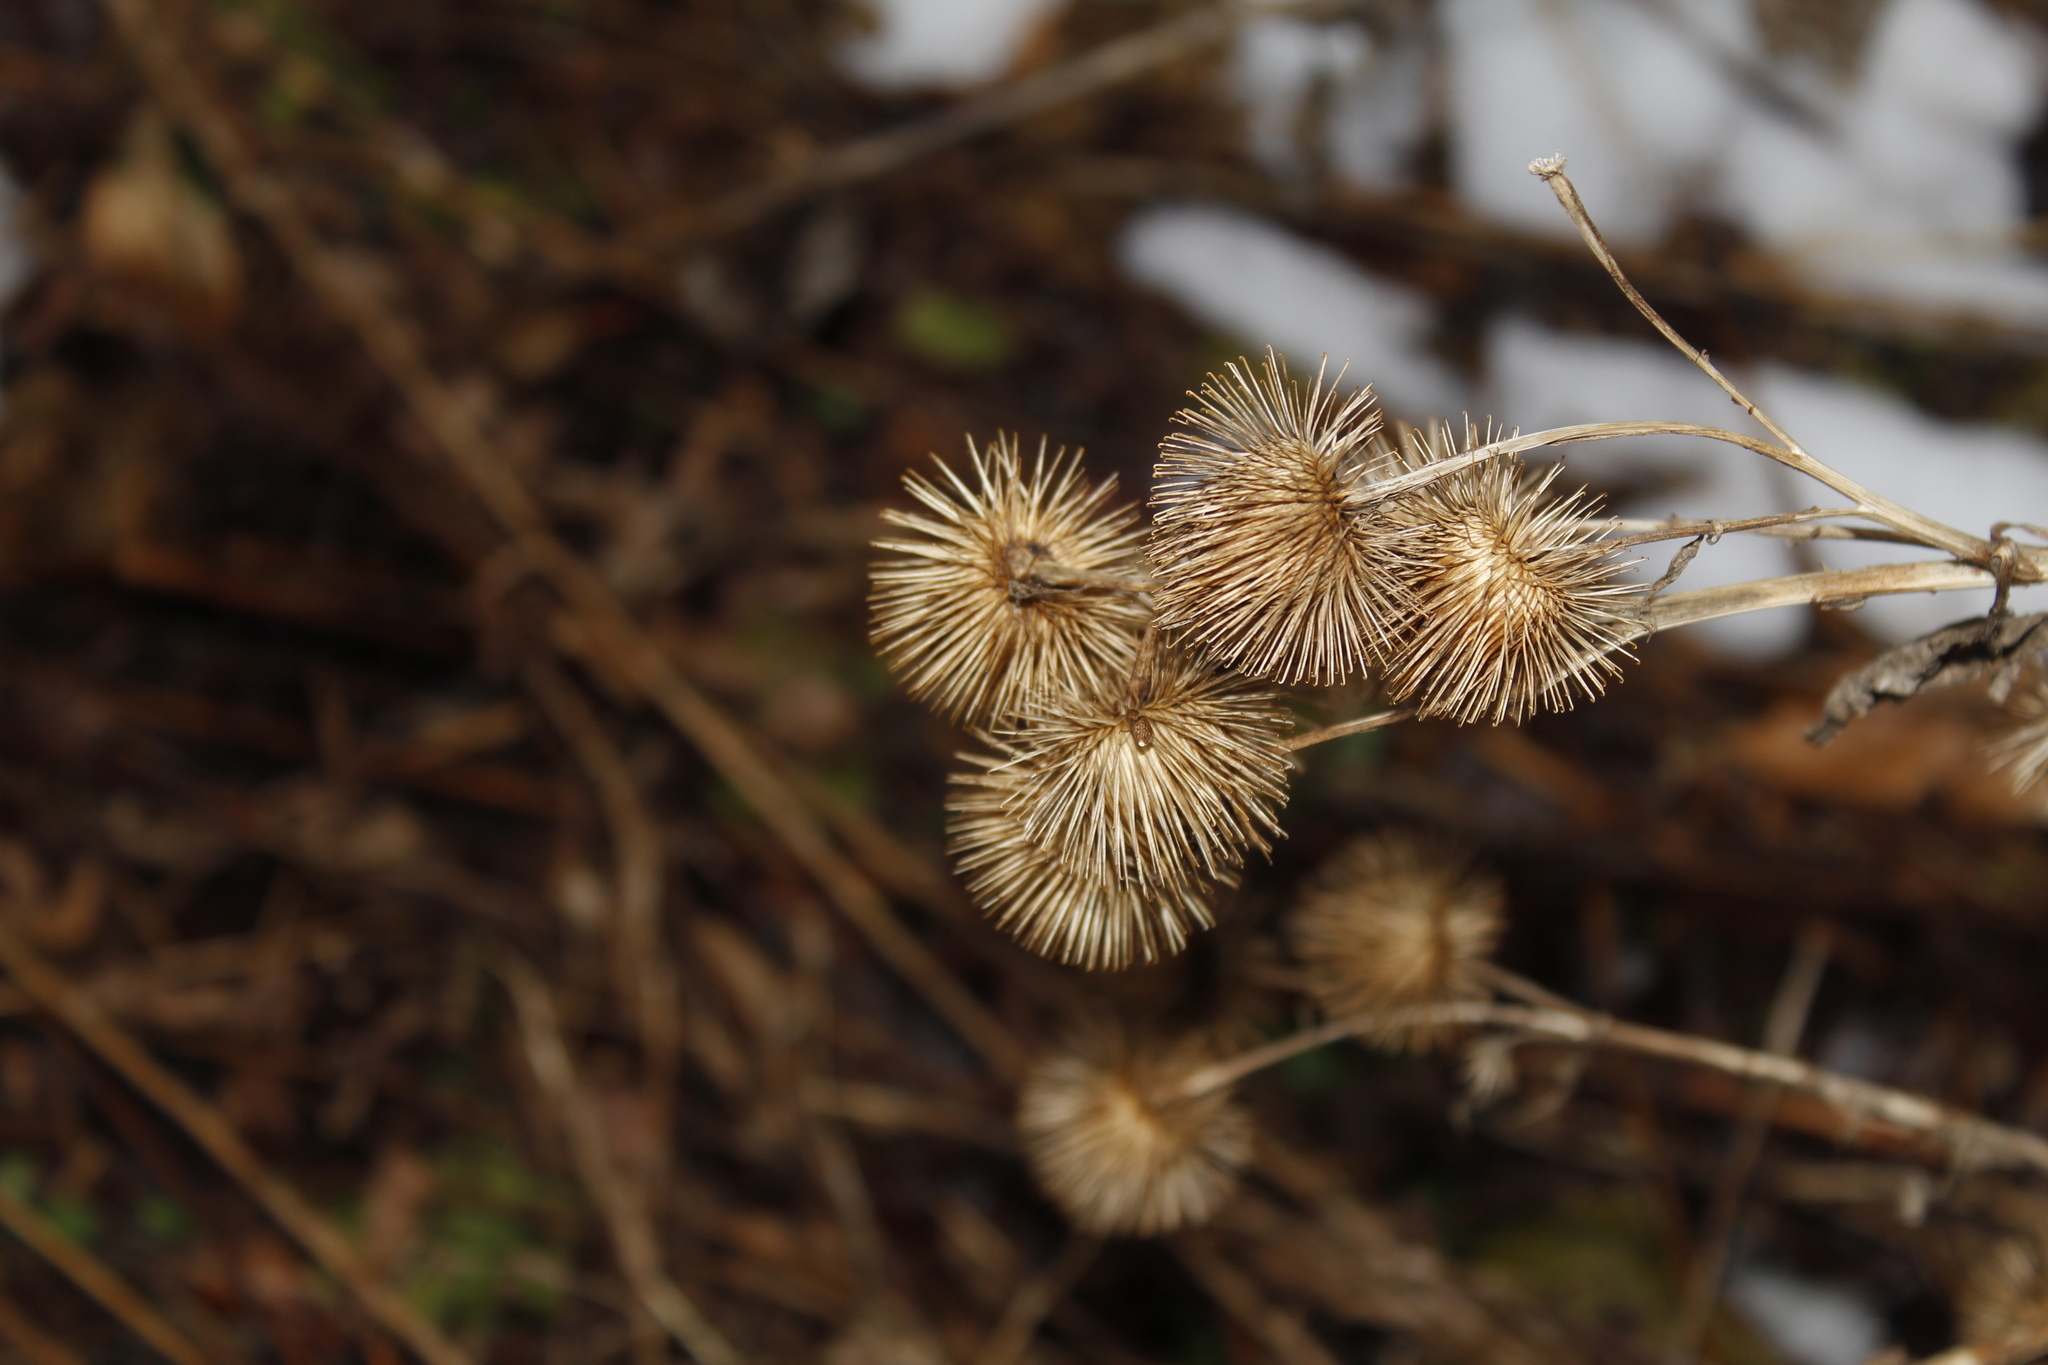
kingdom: Plantae
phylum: Tracheophyta
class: Magnoliopsida
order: Asterales
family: Asteraceae
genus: Arctium
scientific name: Arctium minus
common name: Lesser burdock
